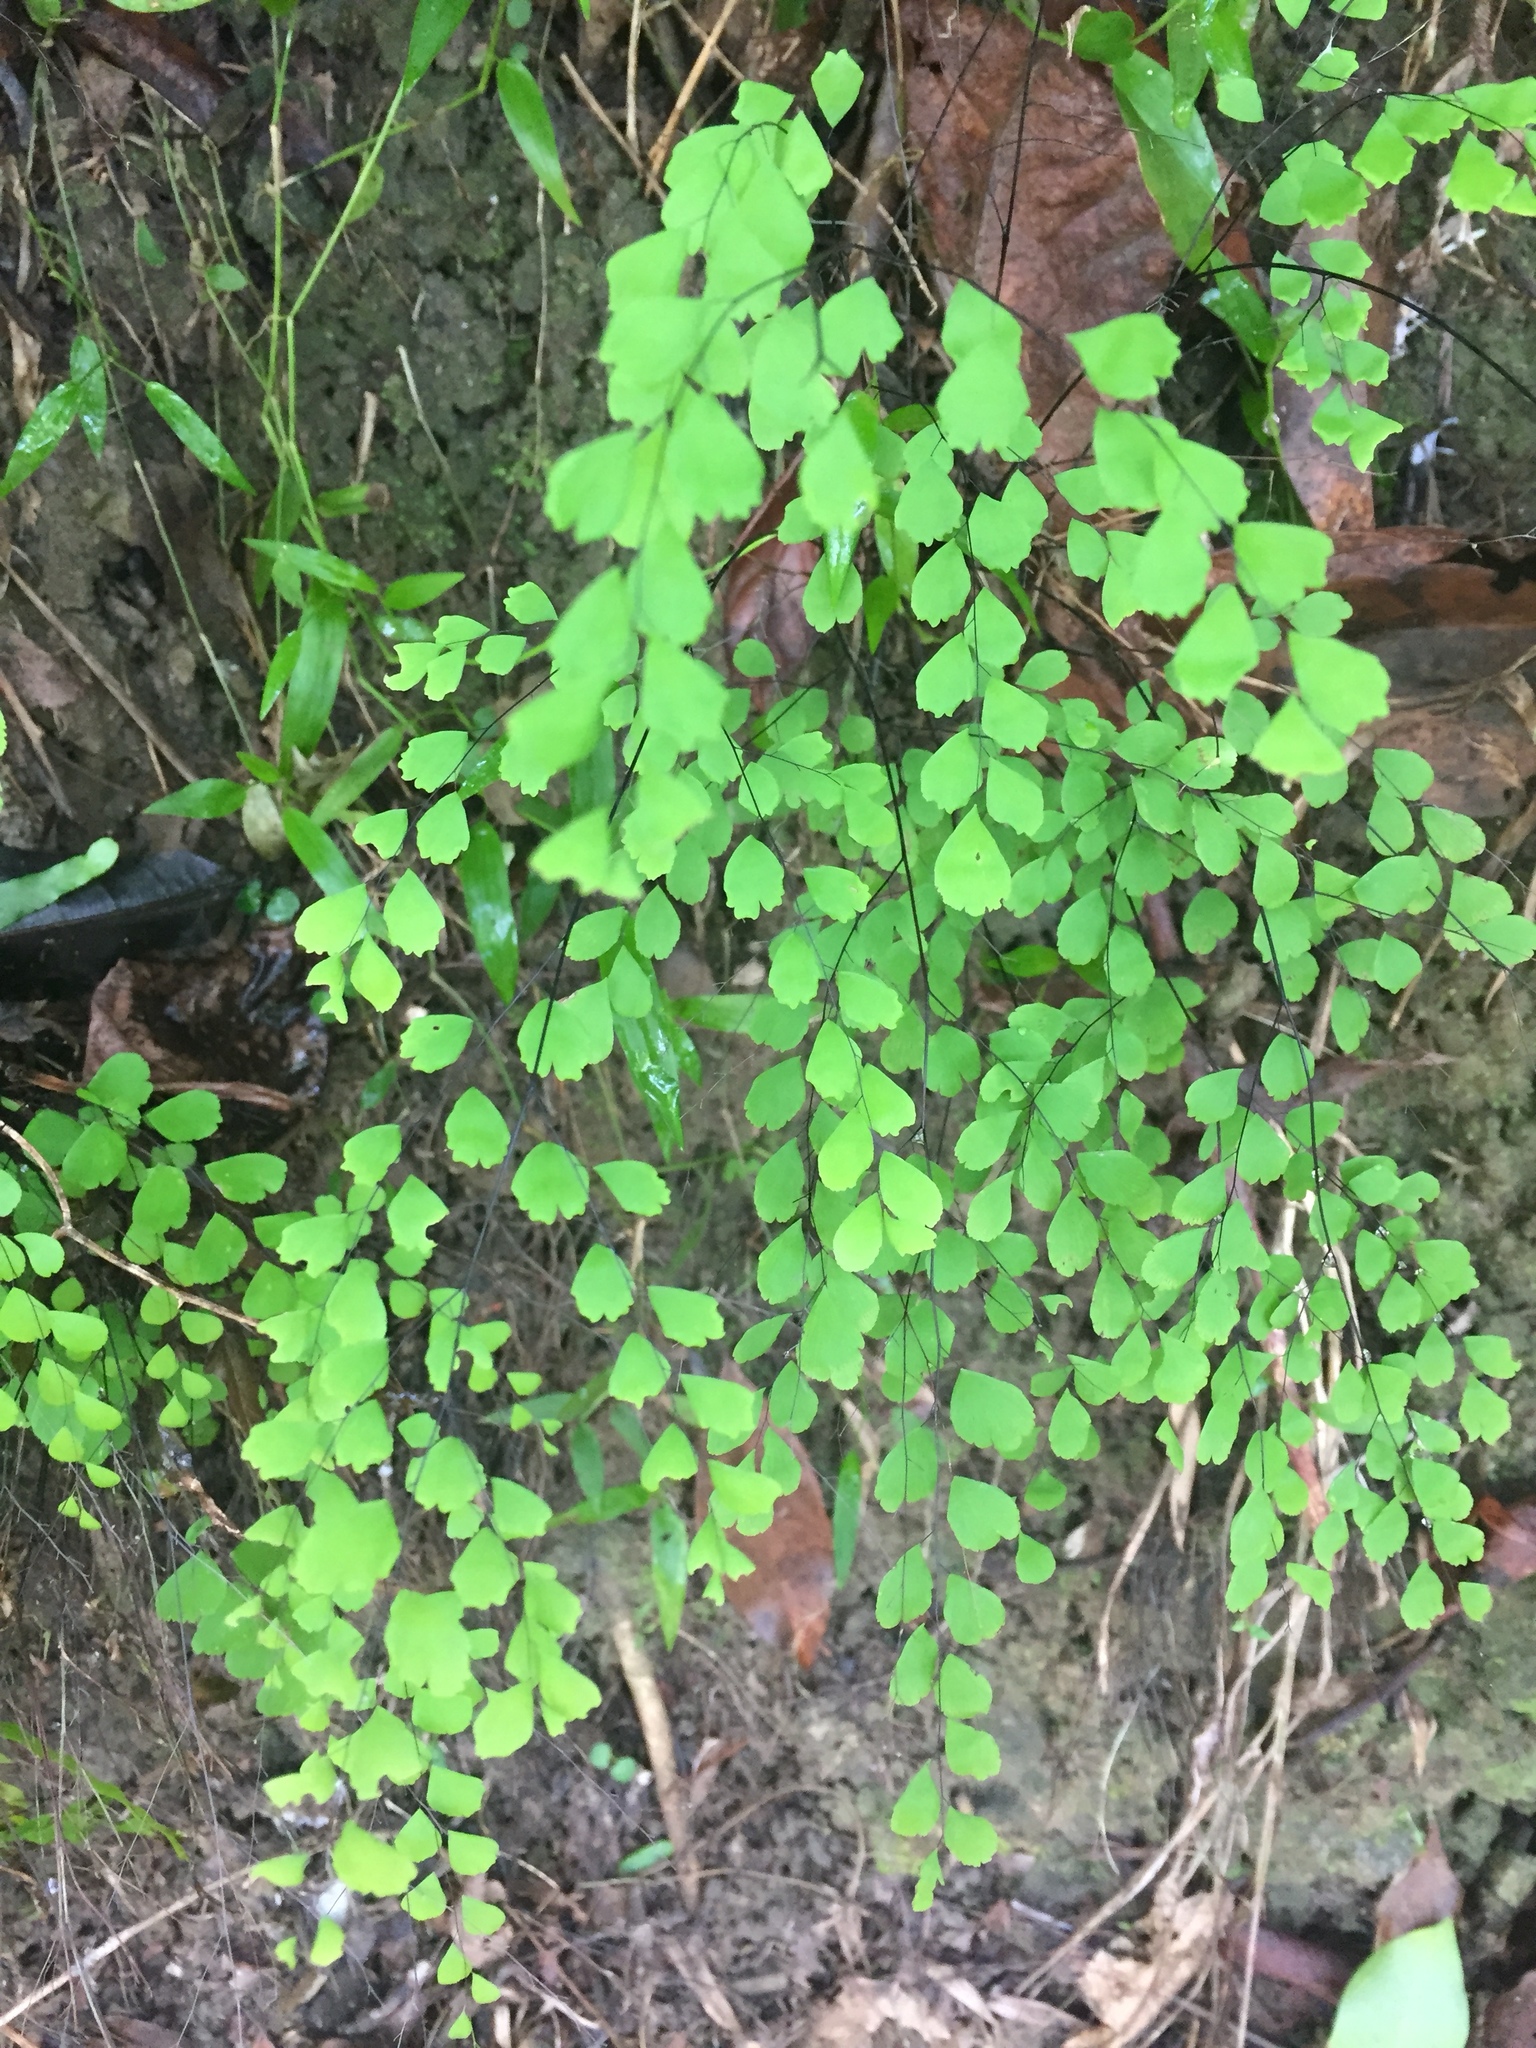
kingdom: Plantae
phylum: Tracheophyta
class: Polypodiopsida
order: Polypodiales
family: Pteridaceae
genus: Adiantum
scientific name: Adiantum capillus-veneris
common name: Maidenhair fern
